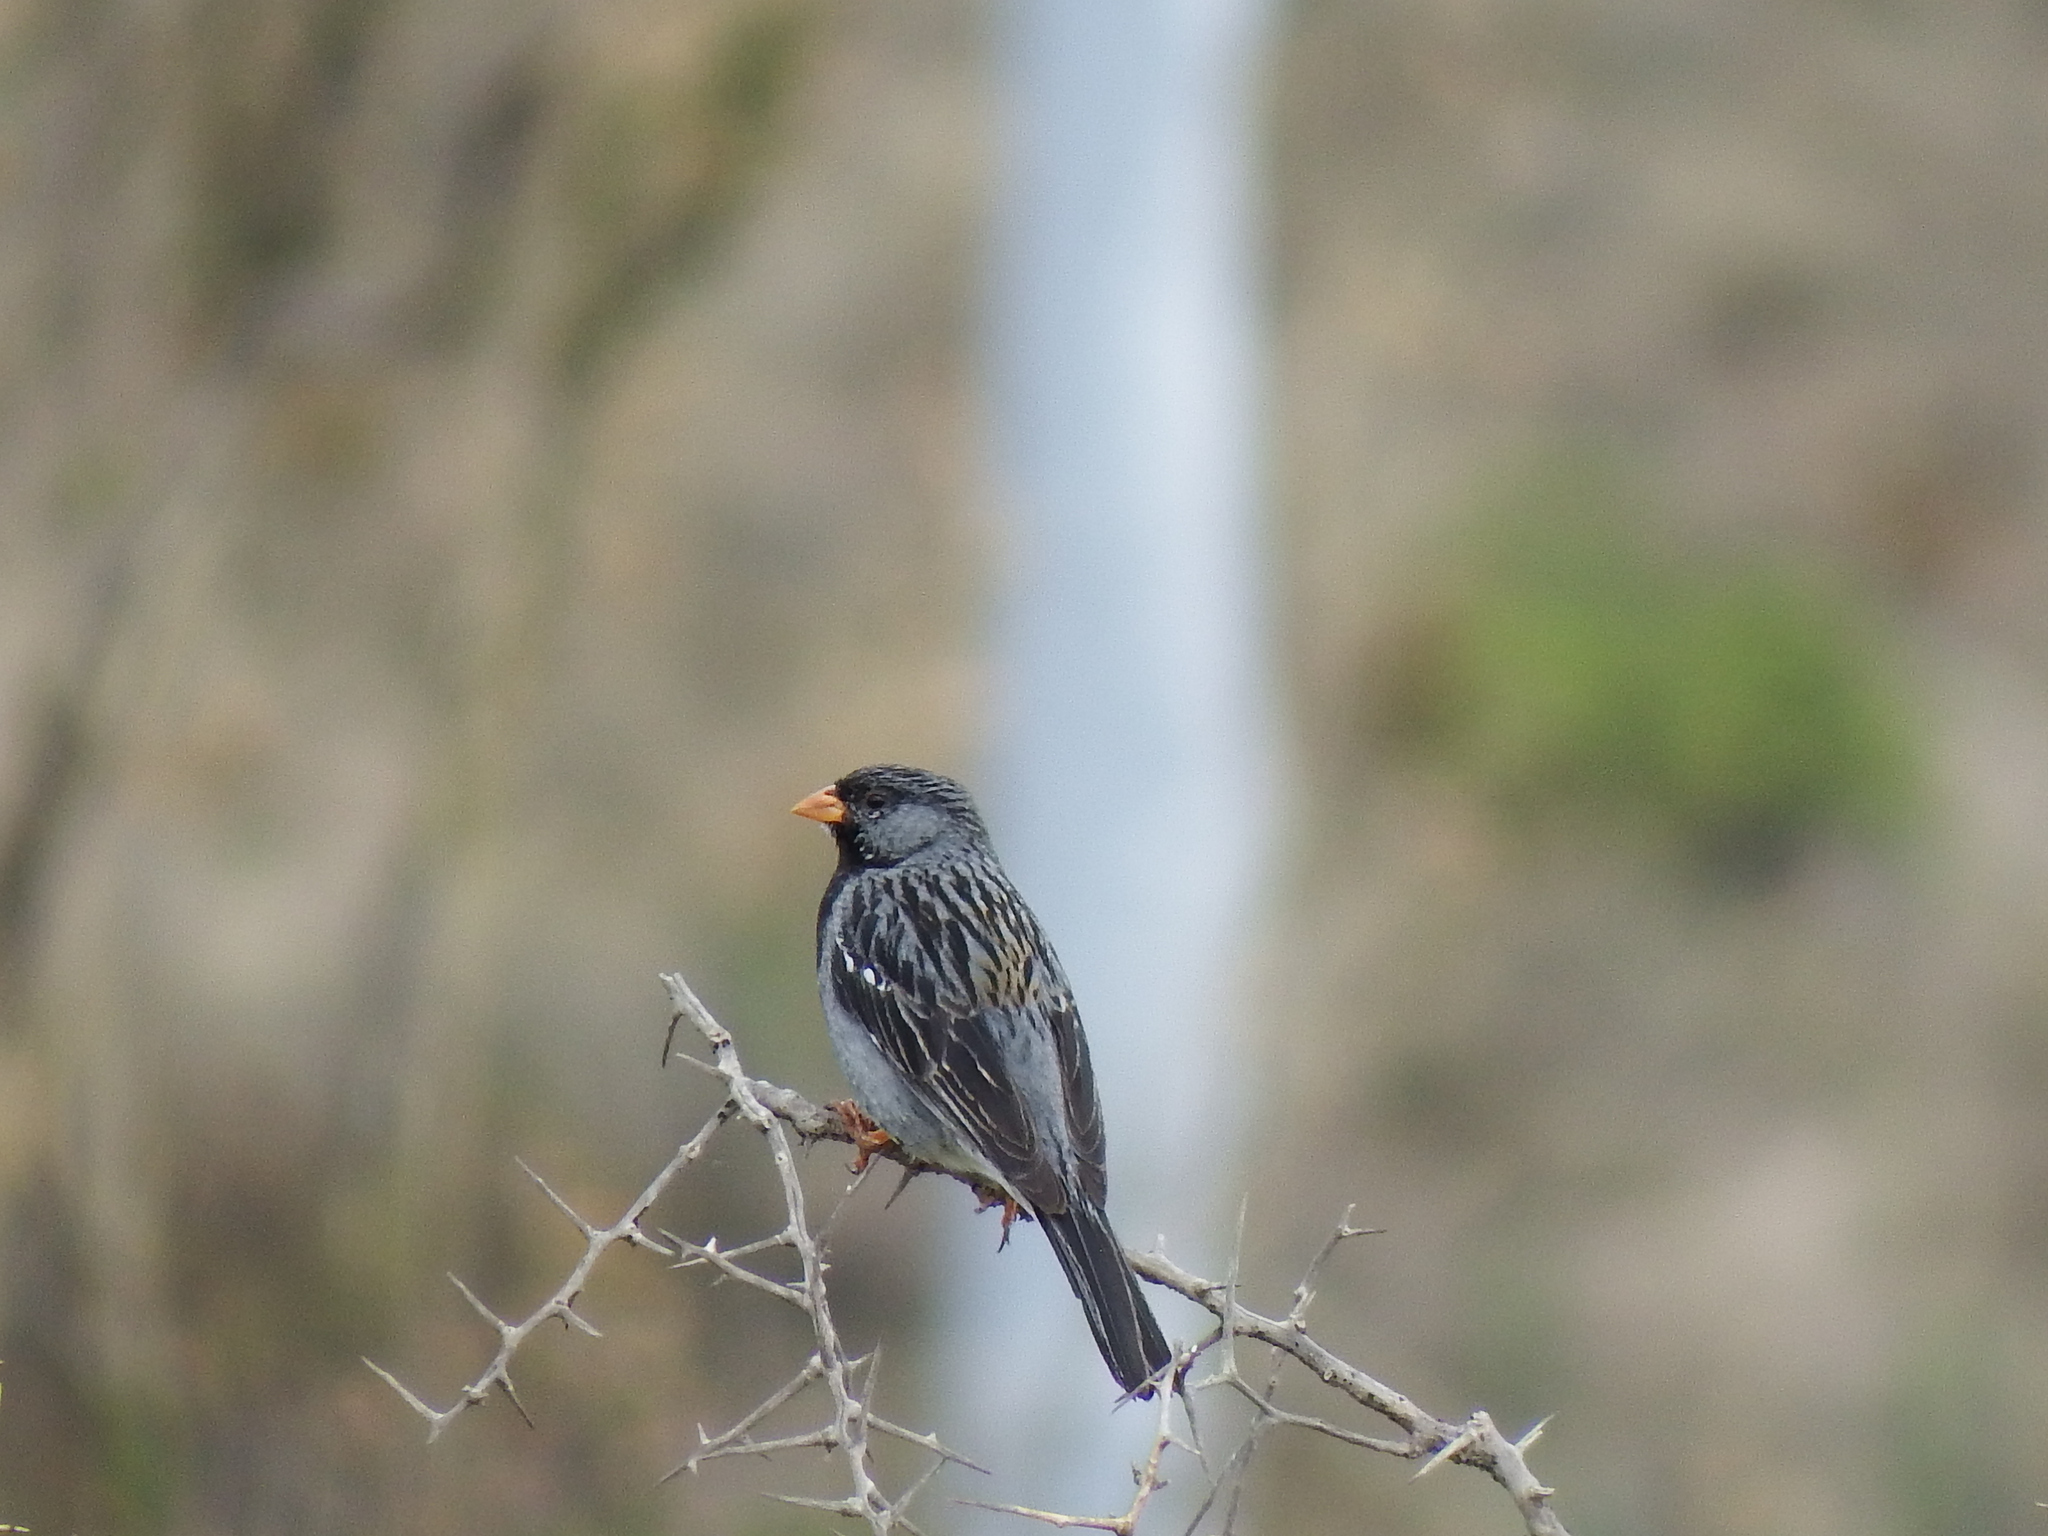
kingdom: Animalia
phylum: Chordata
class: Aves
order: Passeriformes
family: Thraupidae
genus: Rhopospina
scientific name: Rhopospina fruticeti
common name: Mourning sierra finch
